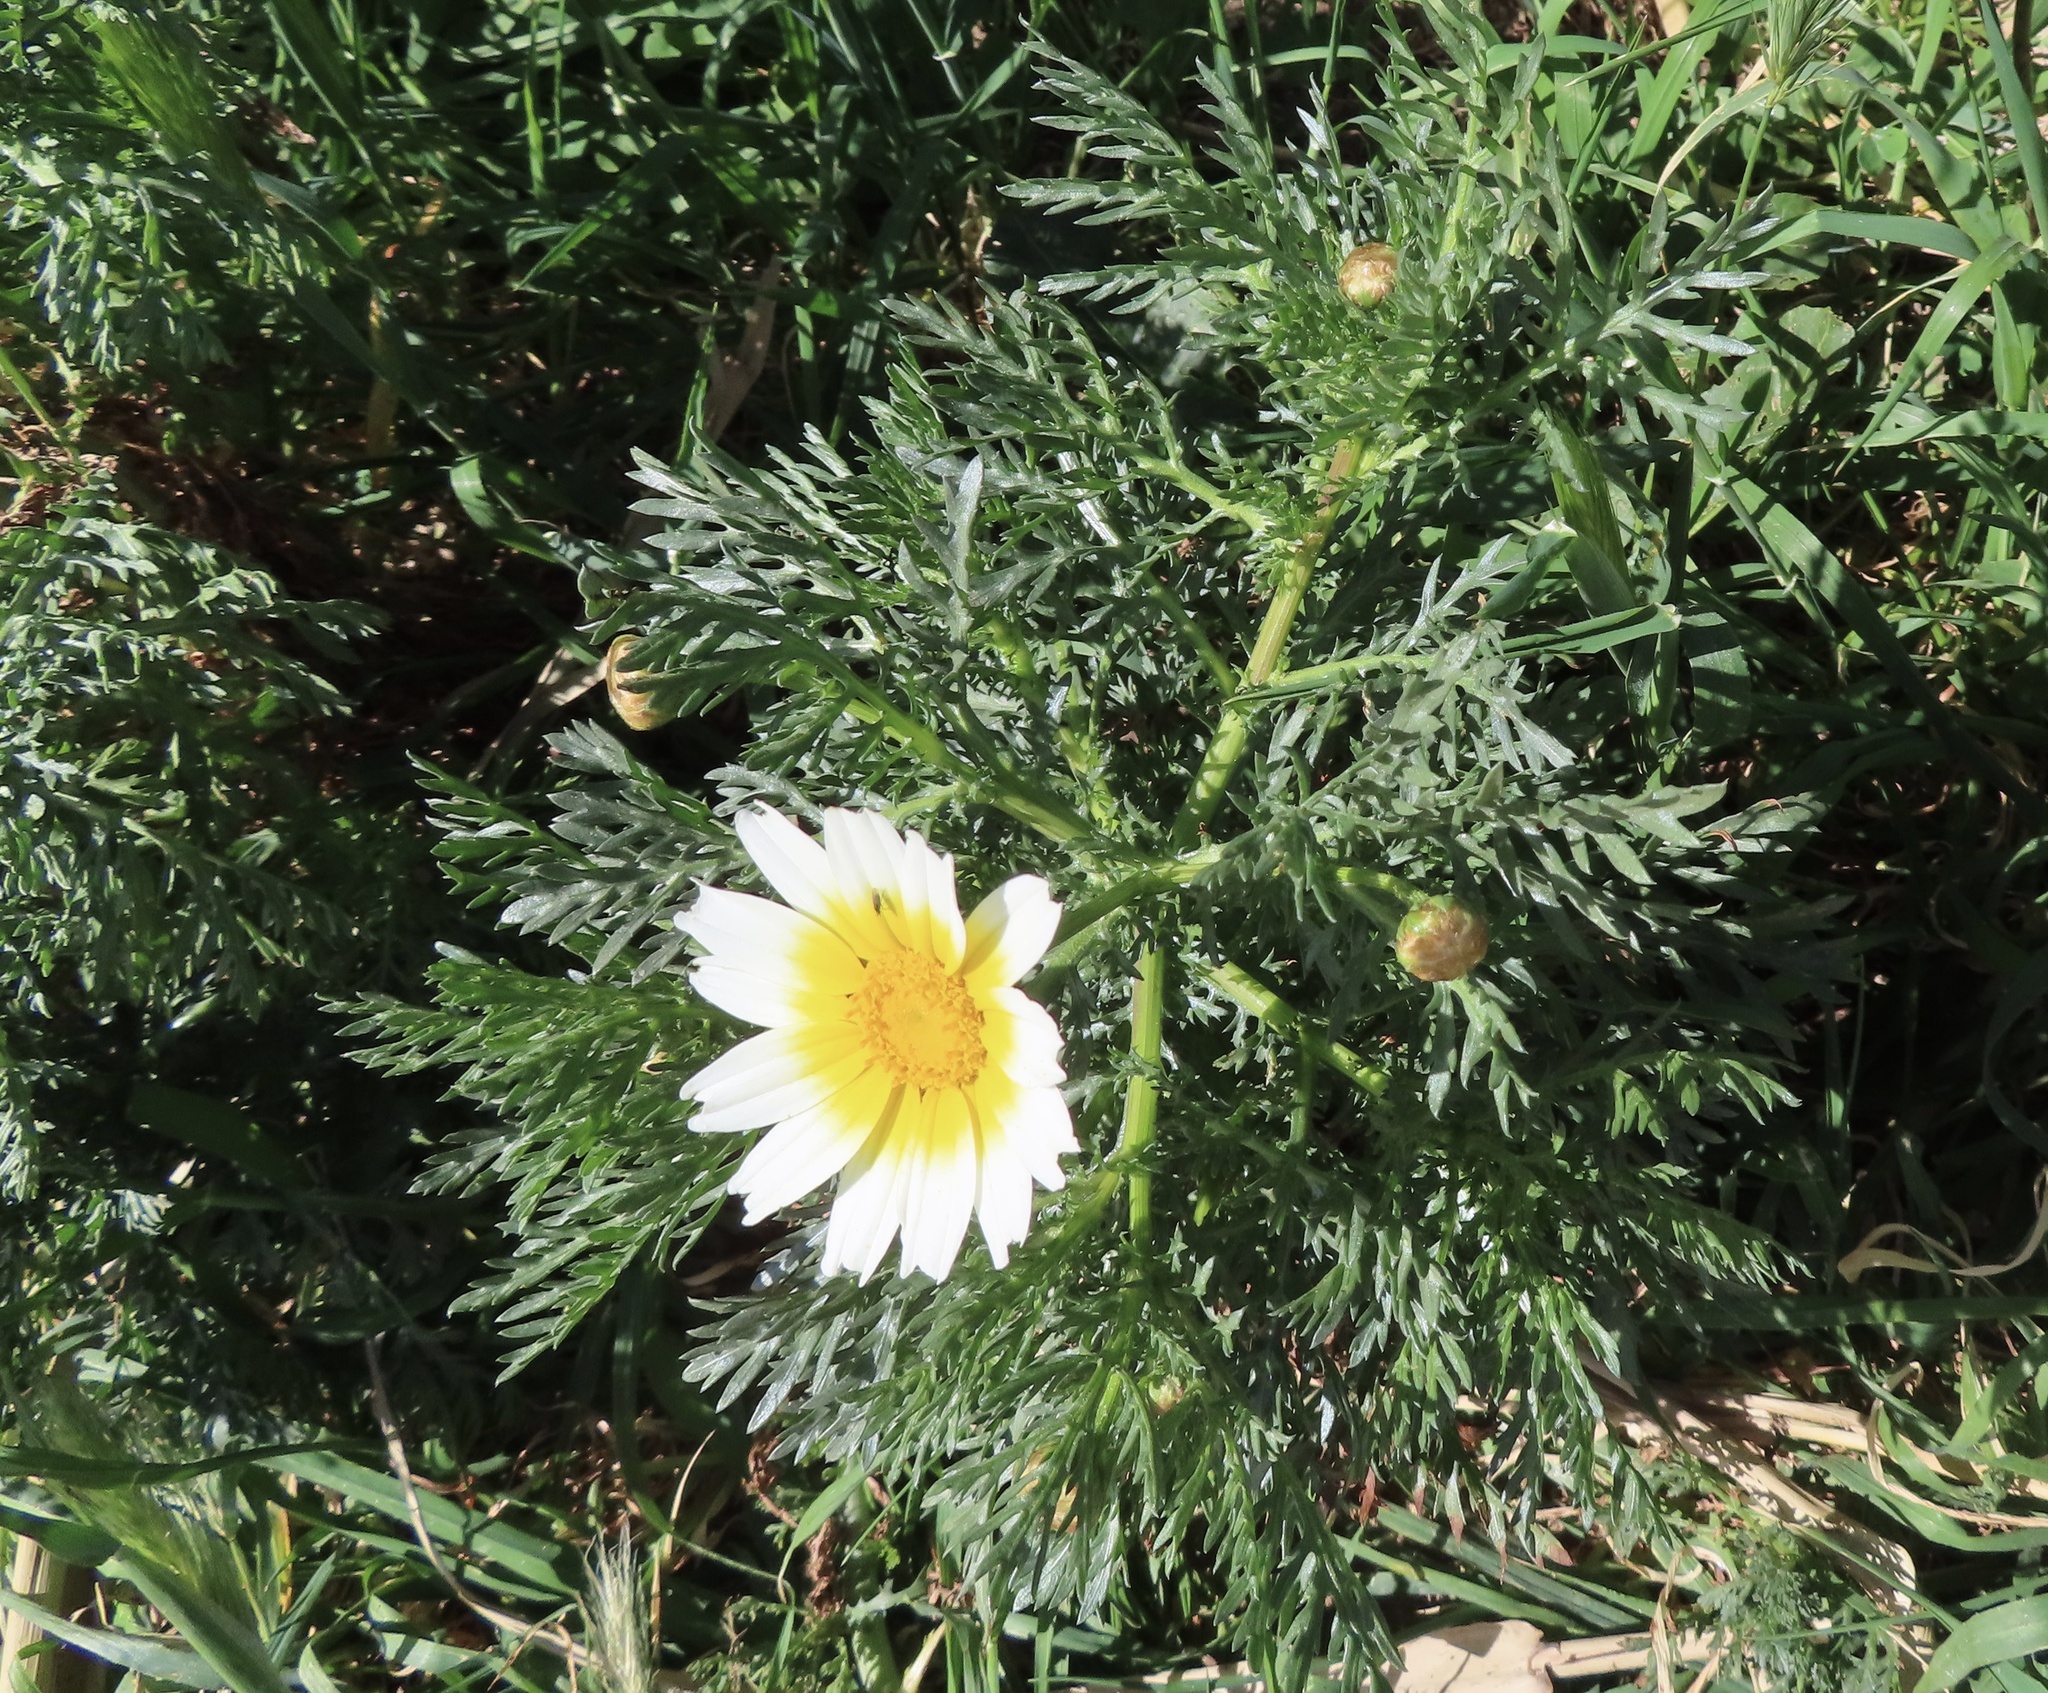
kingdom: Plantae
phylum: Tracheophyta
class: Magnoliopsida
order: Asterales
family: Asteraceae
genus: Glebionis
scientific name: Glebionis coronaria
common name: Crowndaisy
